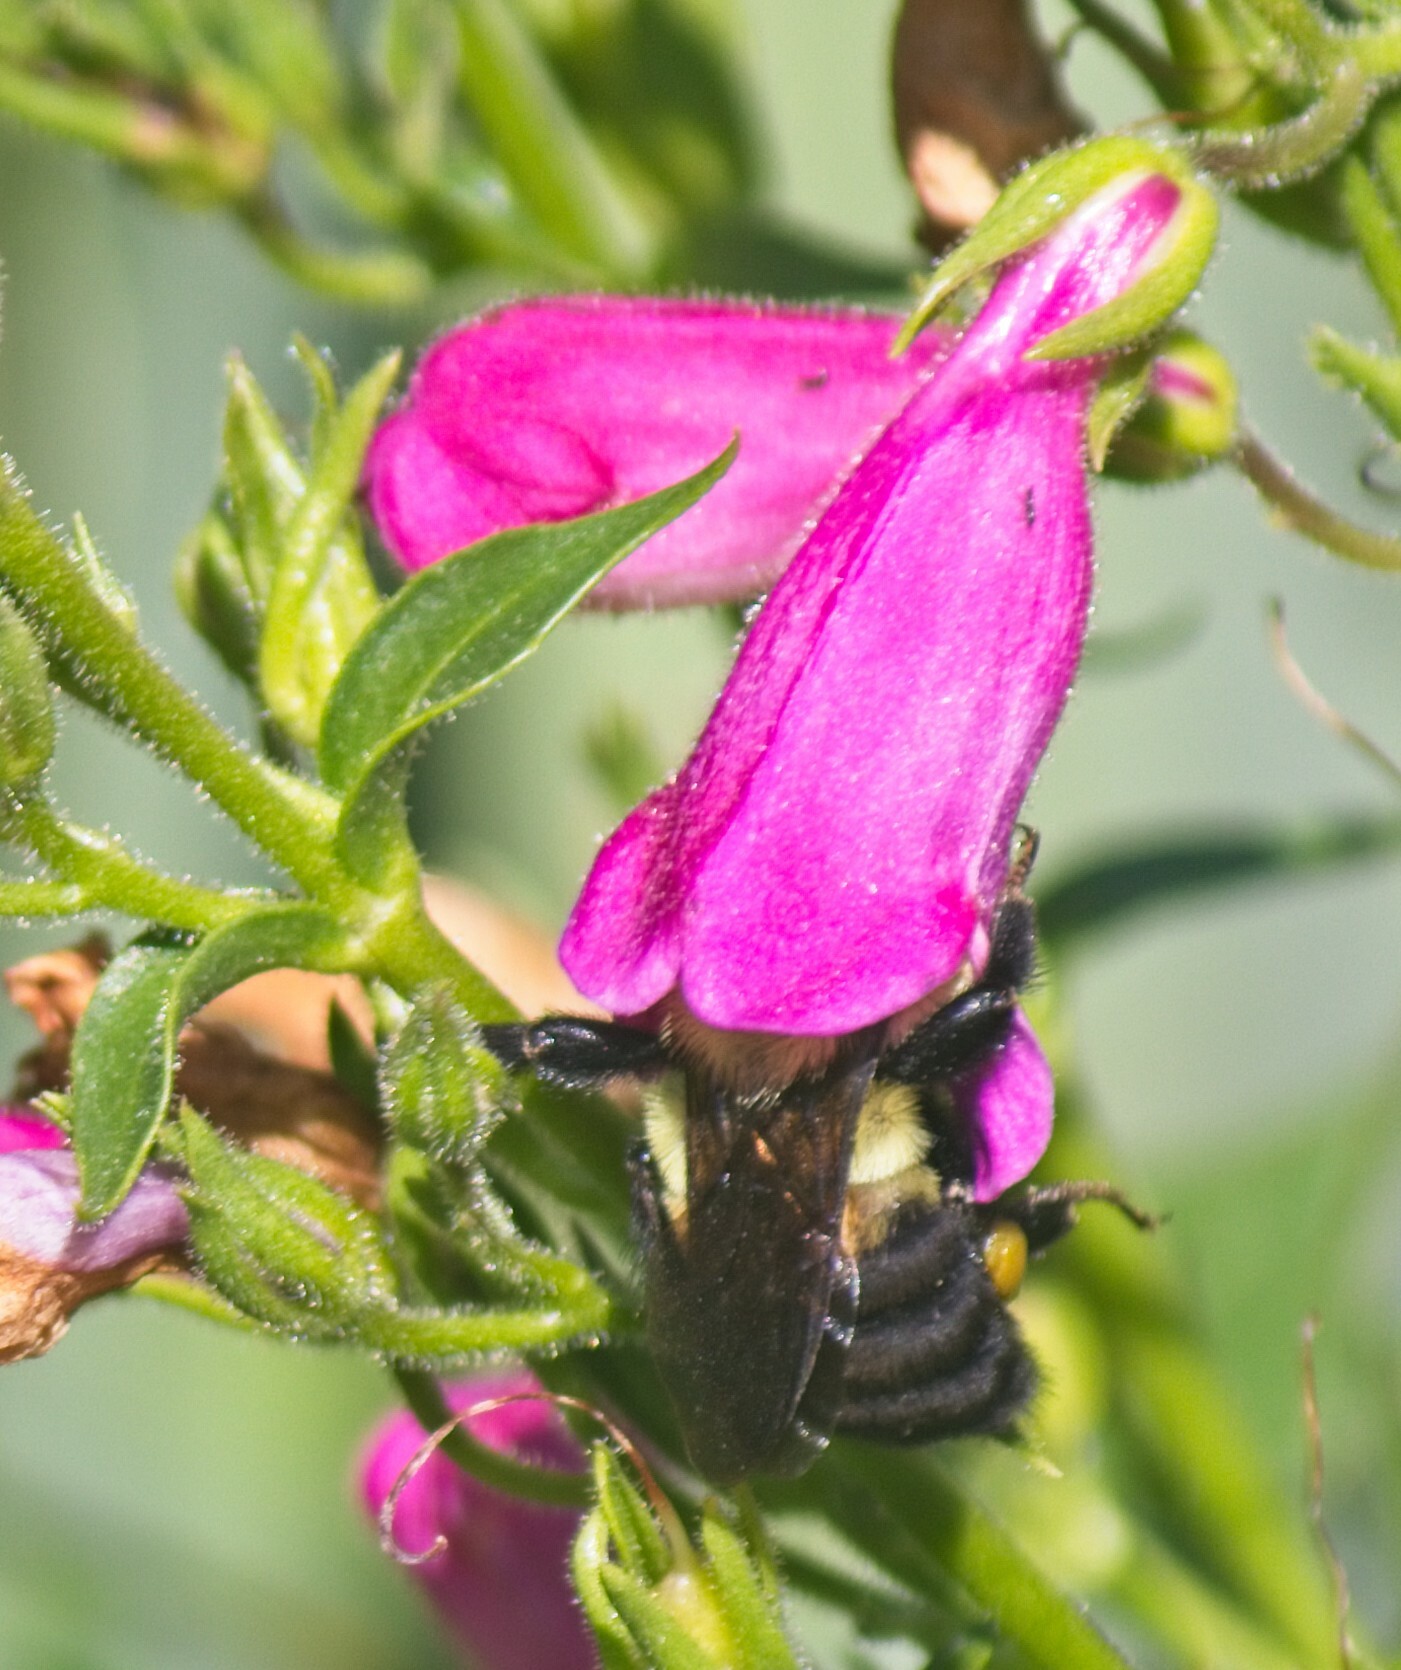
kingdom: Animalia
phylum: Arthropoda
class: Insecta
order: Hymenoptera
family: Apidae
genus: Bombus
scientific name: Bombus griseocollis
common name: Brown-belted bumble bee
